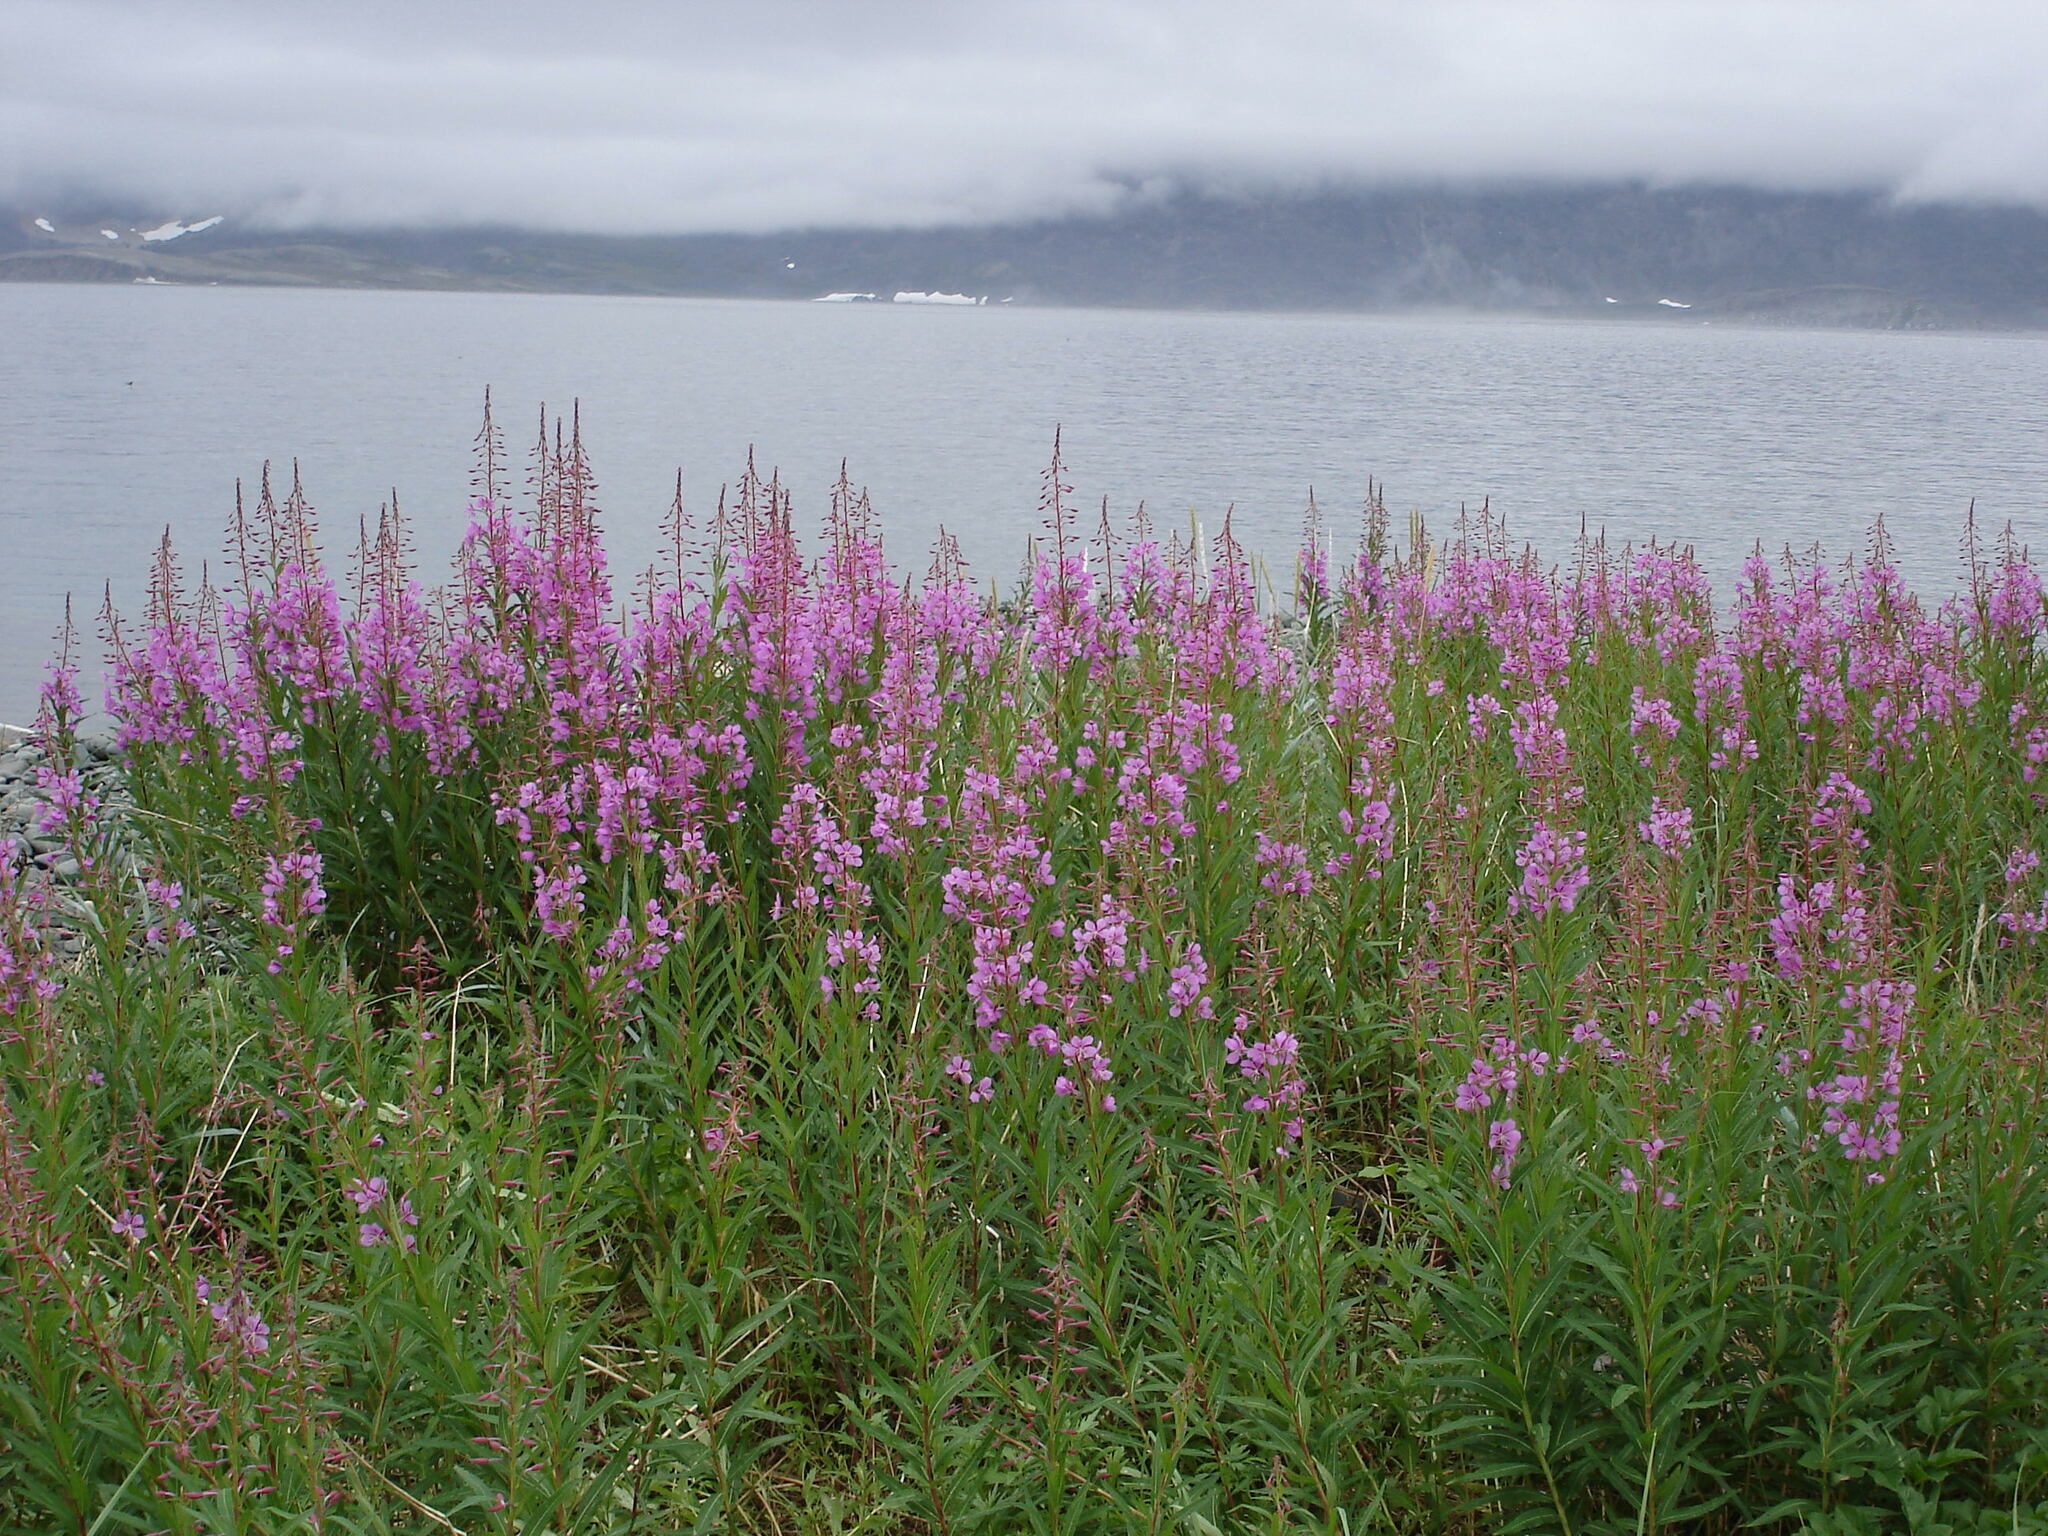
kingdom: Plantae
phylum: Tracheophyta
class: Magnoliopsida
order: Myrtales
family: Onagraceae
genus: Chamaenerion
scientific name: Chamaenerion angustifolium
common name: Fireweed
